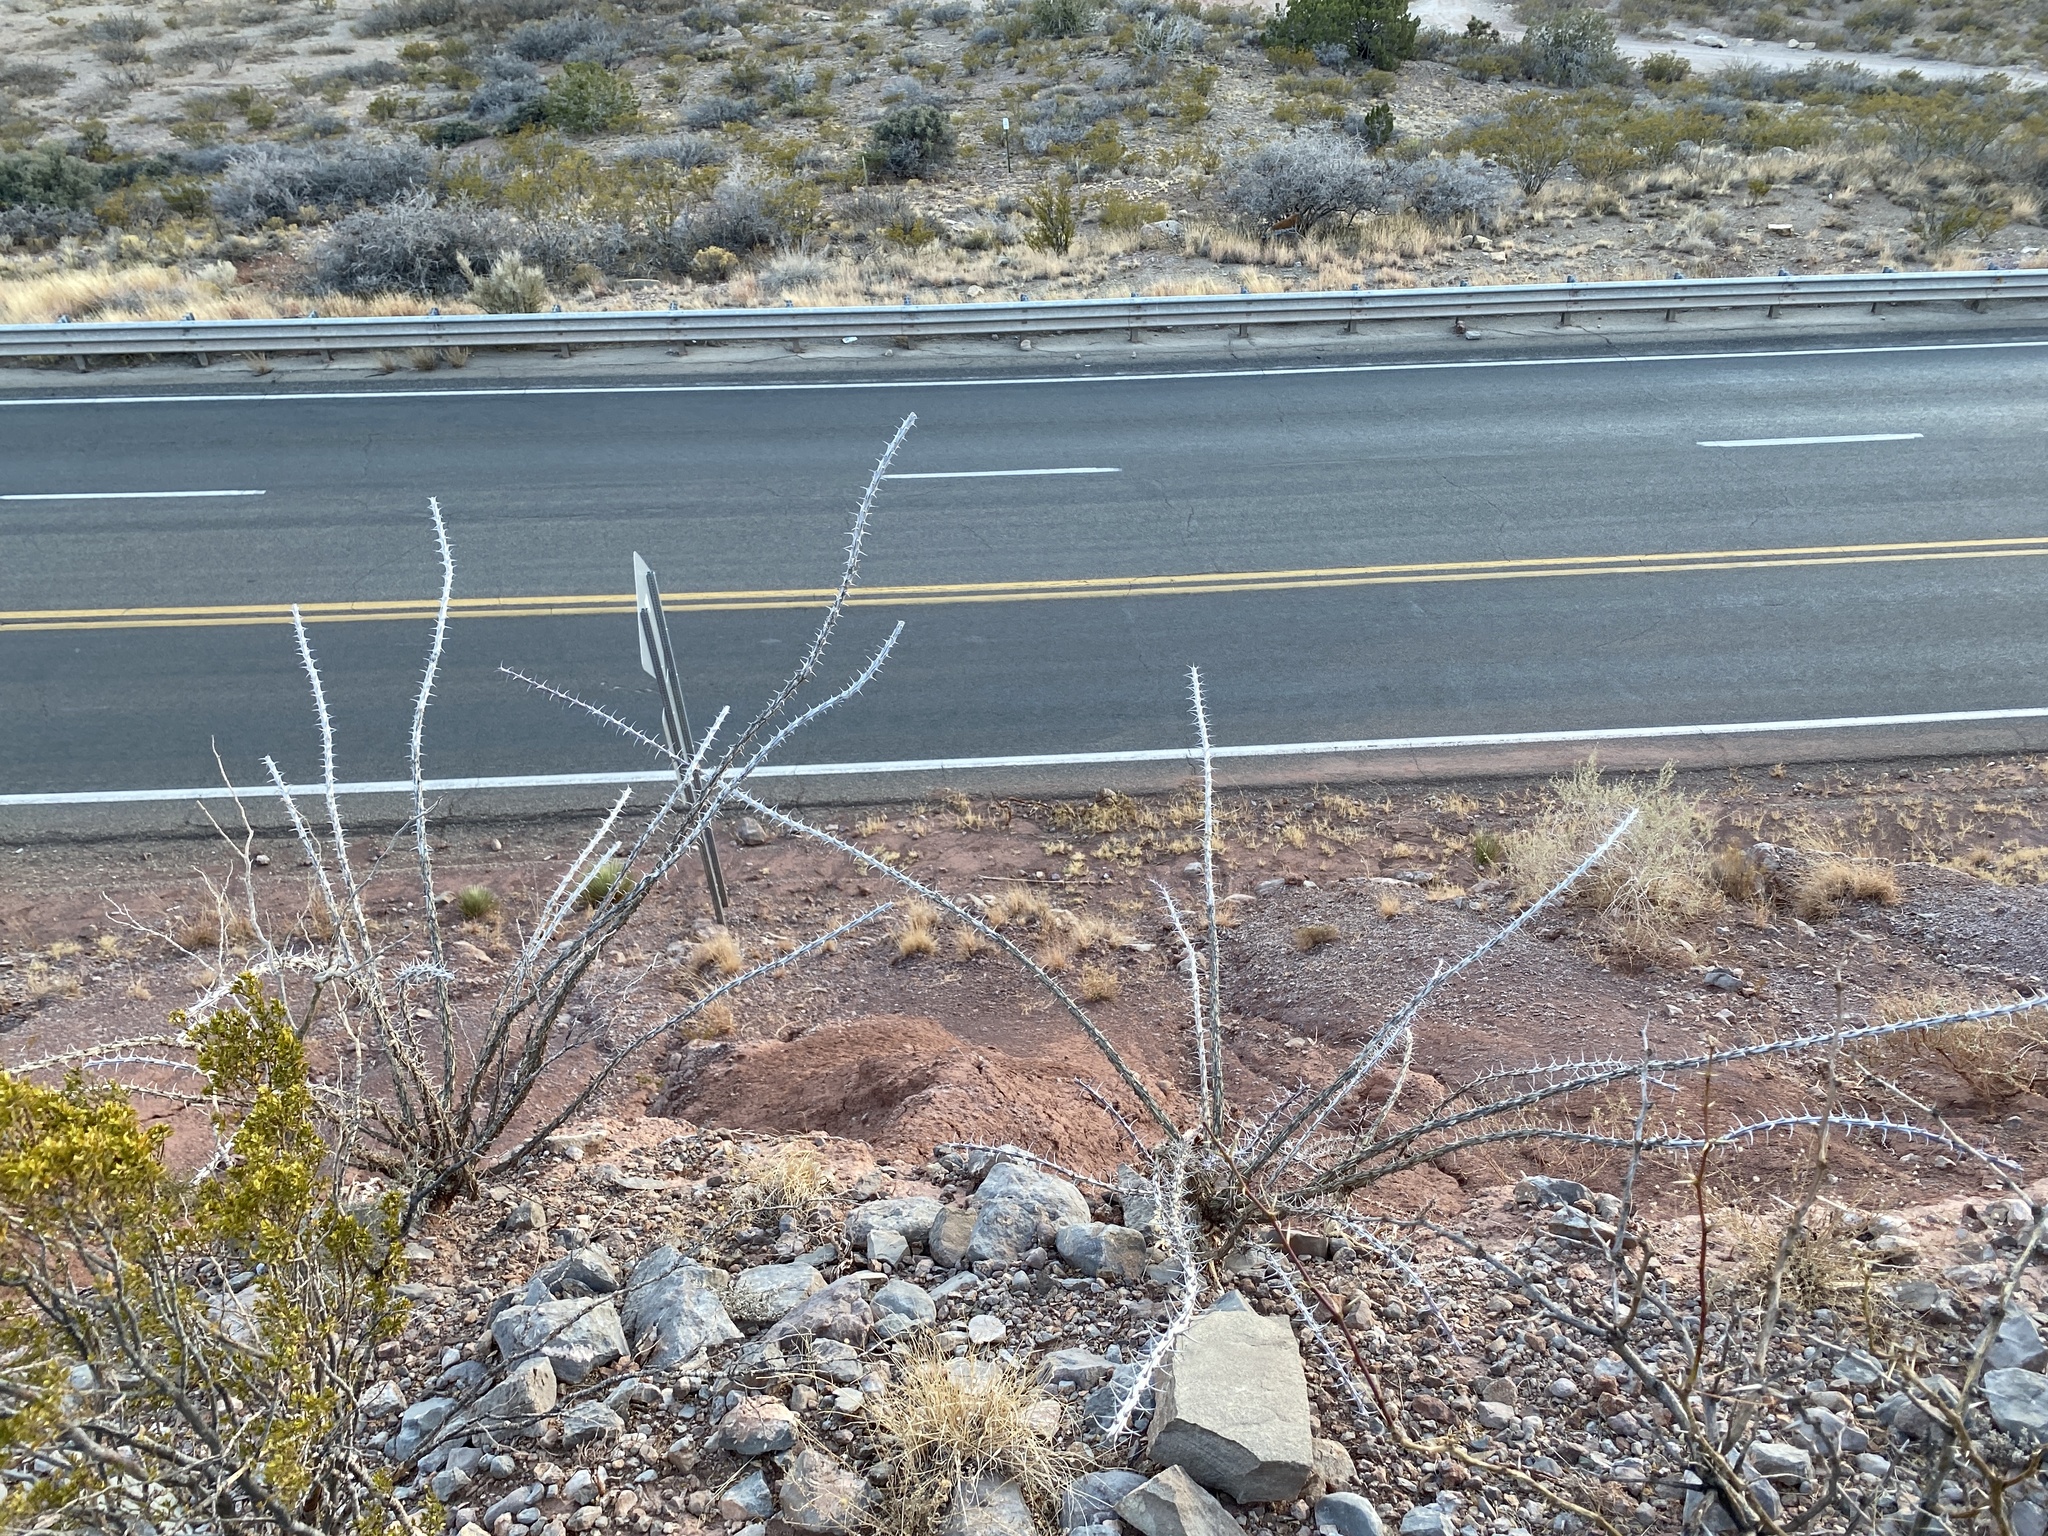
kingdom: Plantae
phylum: Tracheophyta
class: Magnoliopsida
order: Ericales
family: Fouquieriaceae
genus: Fouquieria
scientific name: Fouquieria splendens
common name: Vine-cactus
